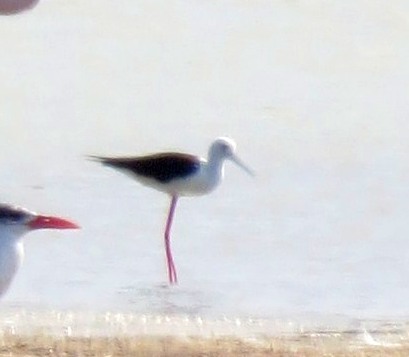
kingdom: Animalia
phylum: Chordata
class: Aves
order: Charadriiformes
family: Recurvirostridae
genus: Himantopus
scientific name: Himantopus himantopus
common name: Black-winged stilt
